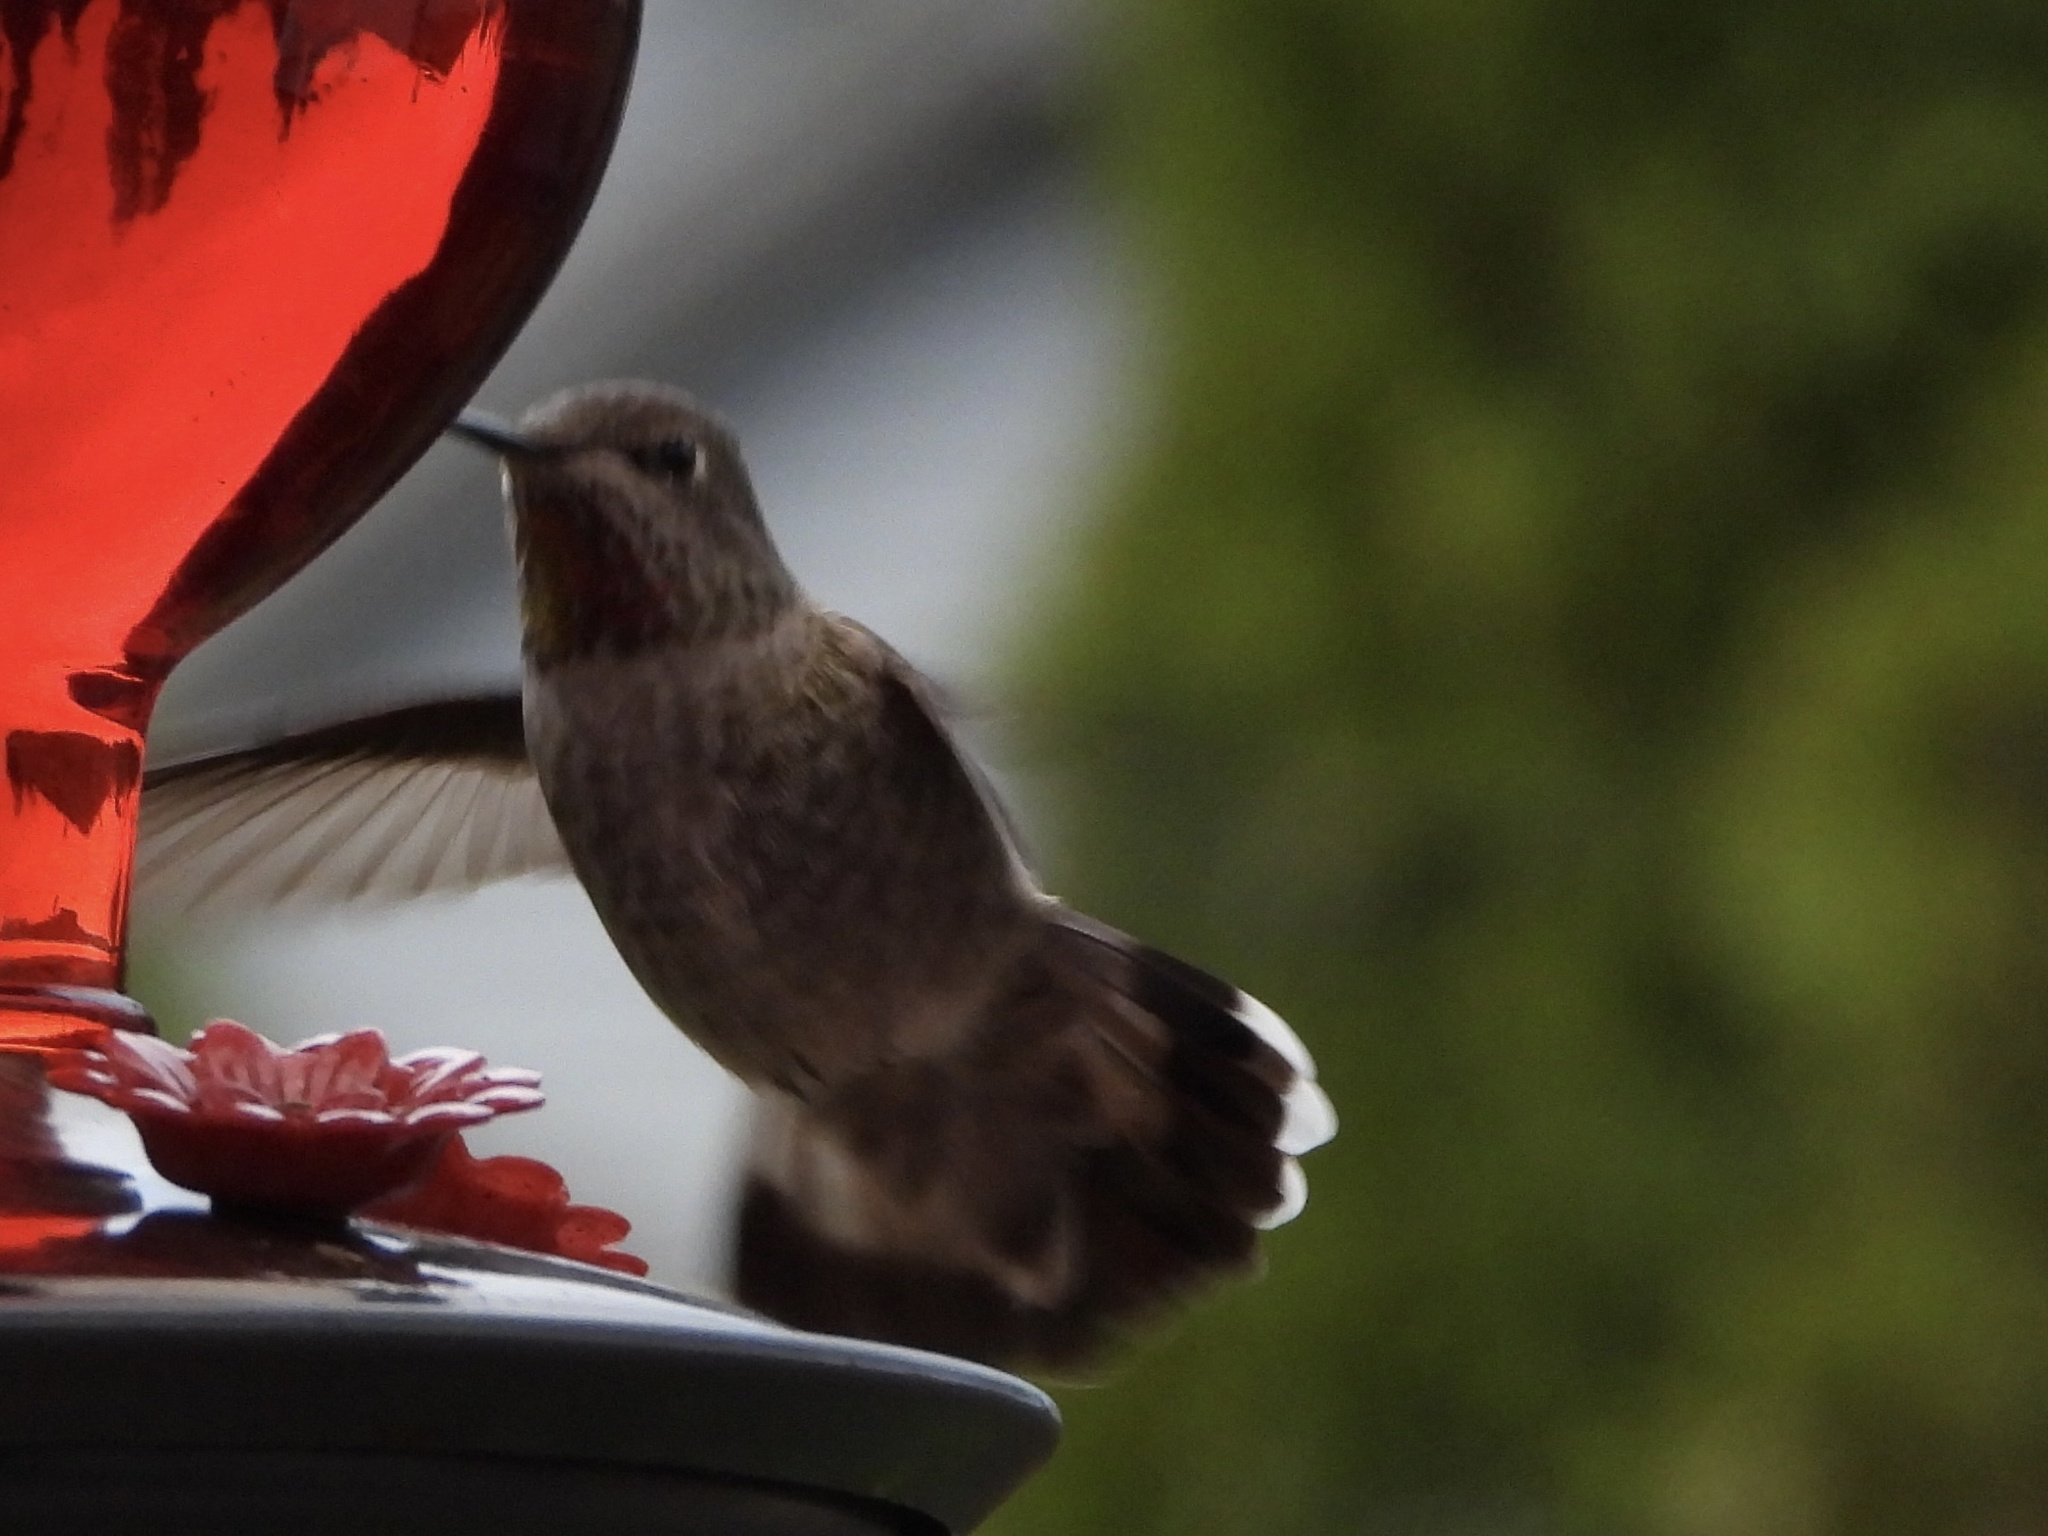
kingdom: Animalia
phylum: Chordata
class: Aves
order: Apodiformes
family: Trochilidae
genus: Calypte
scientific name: Calypte anna
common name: Anna's hummingbird
